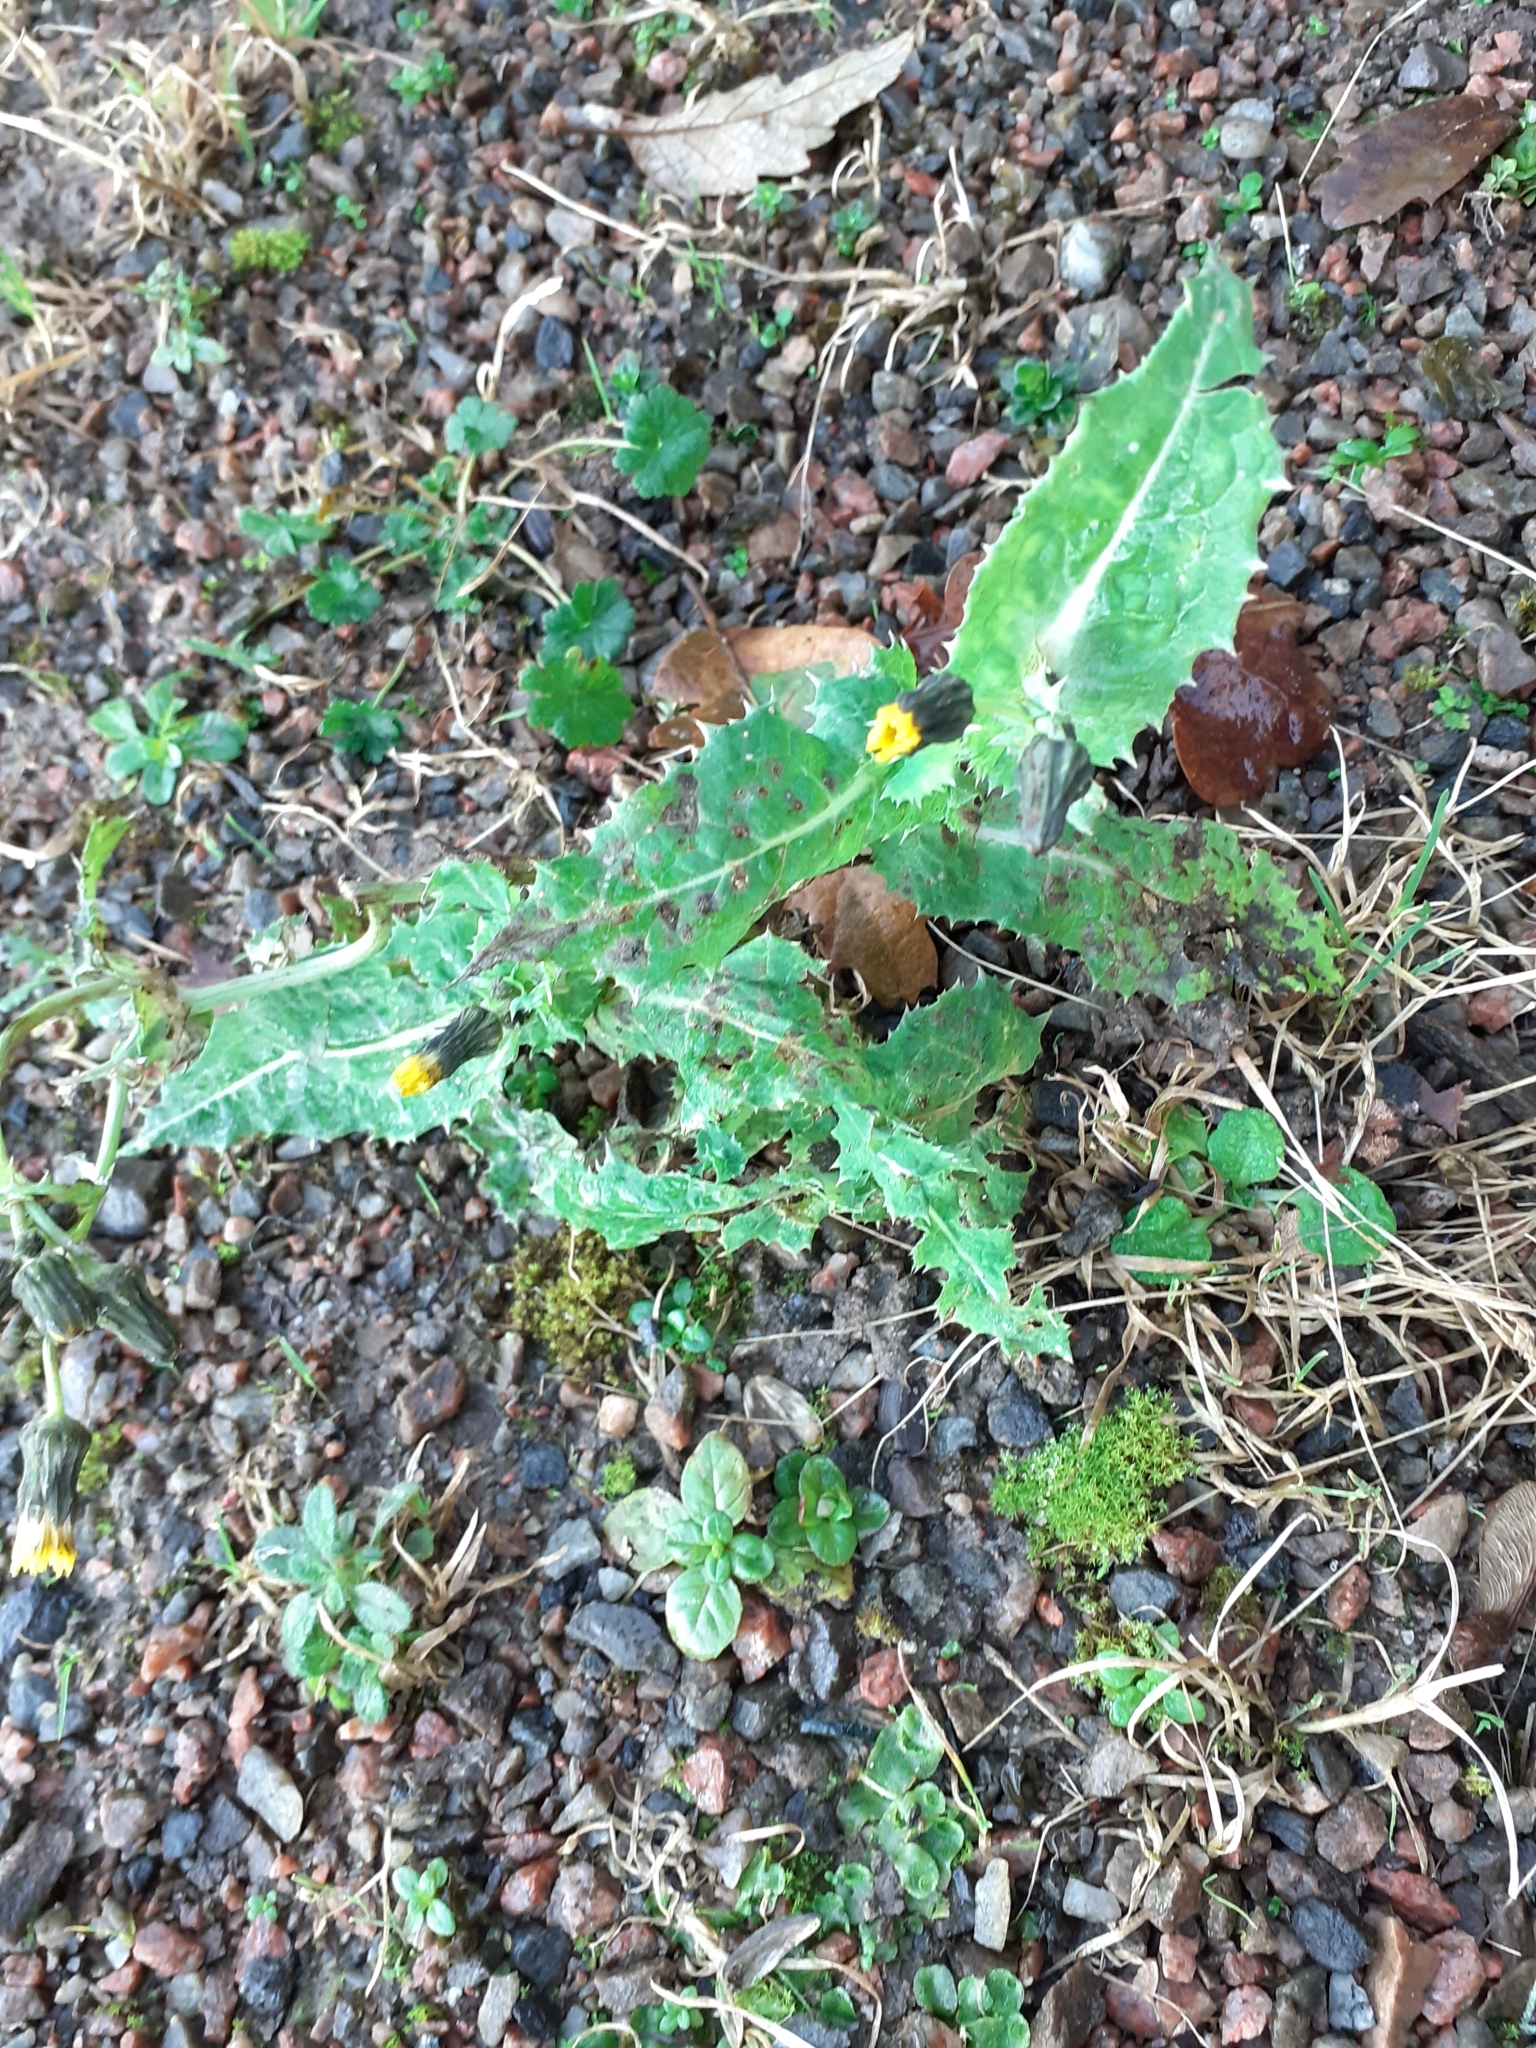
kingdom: Plantae
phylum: Tracheophyta
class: Magnoliopsida
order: Asterales
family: Asteraceae
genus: Sonchus
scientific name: Sonchus asper
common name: Prickly sow-thistle
